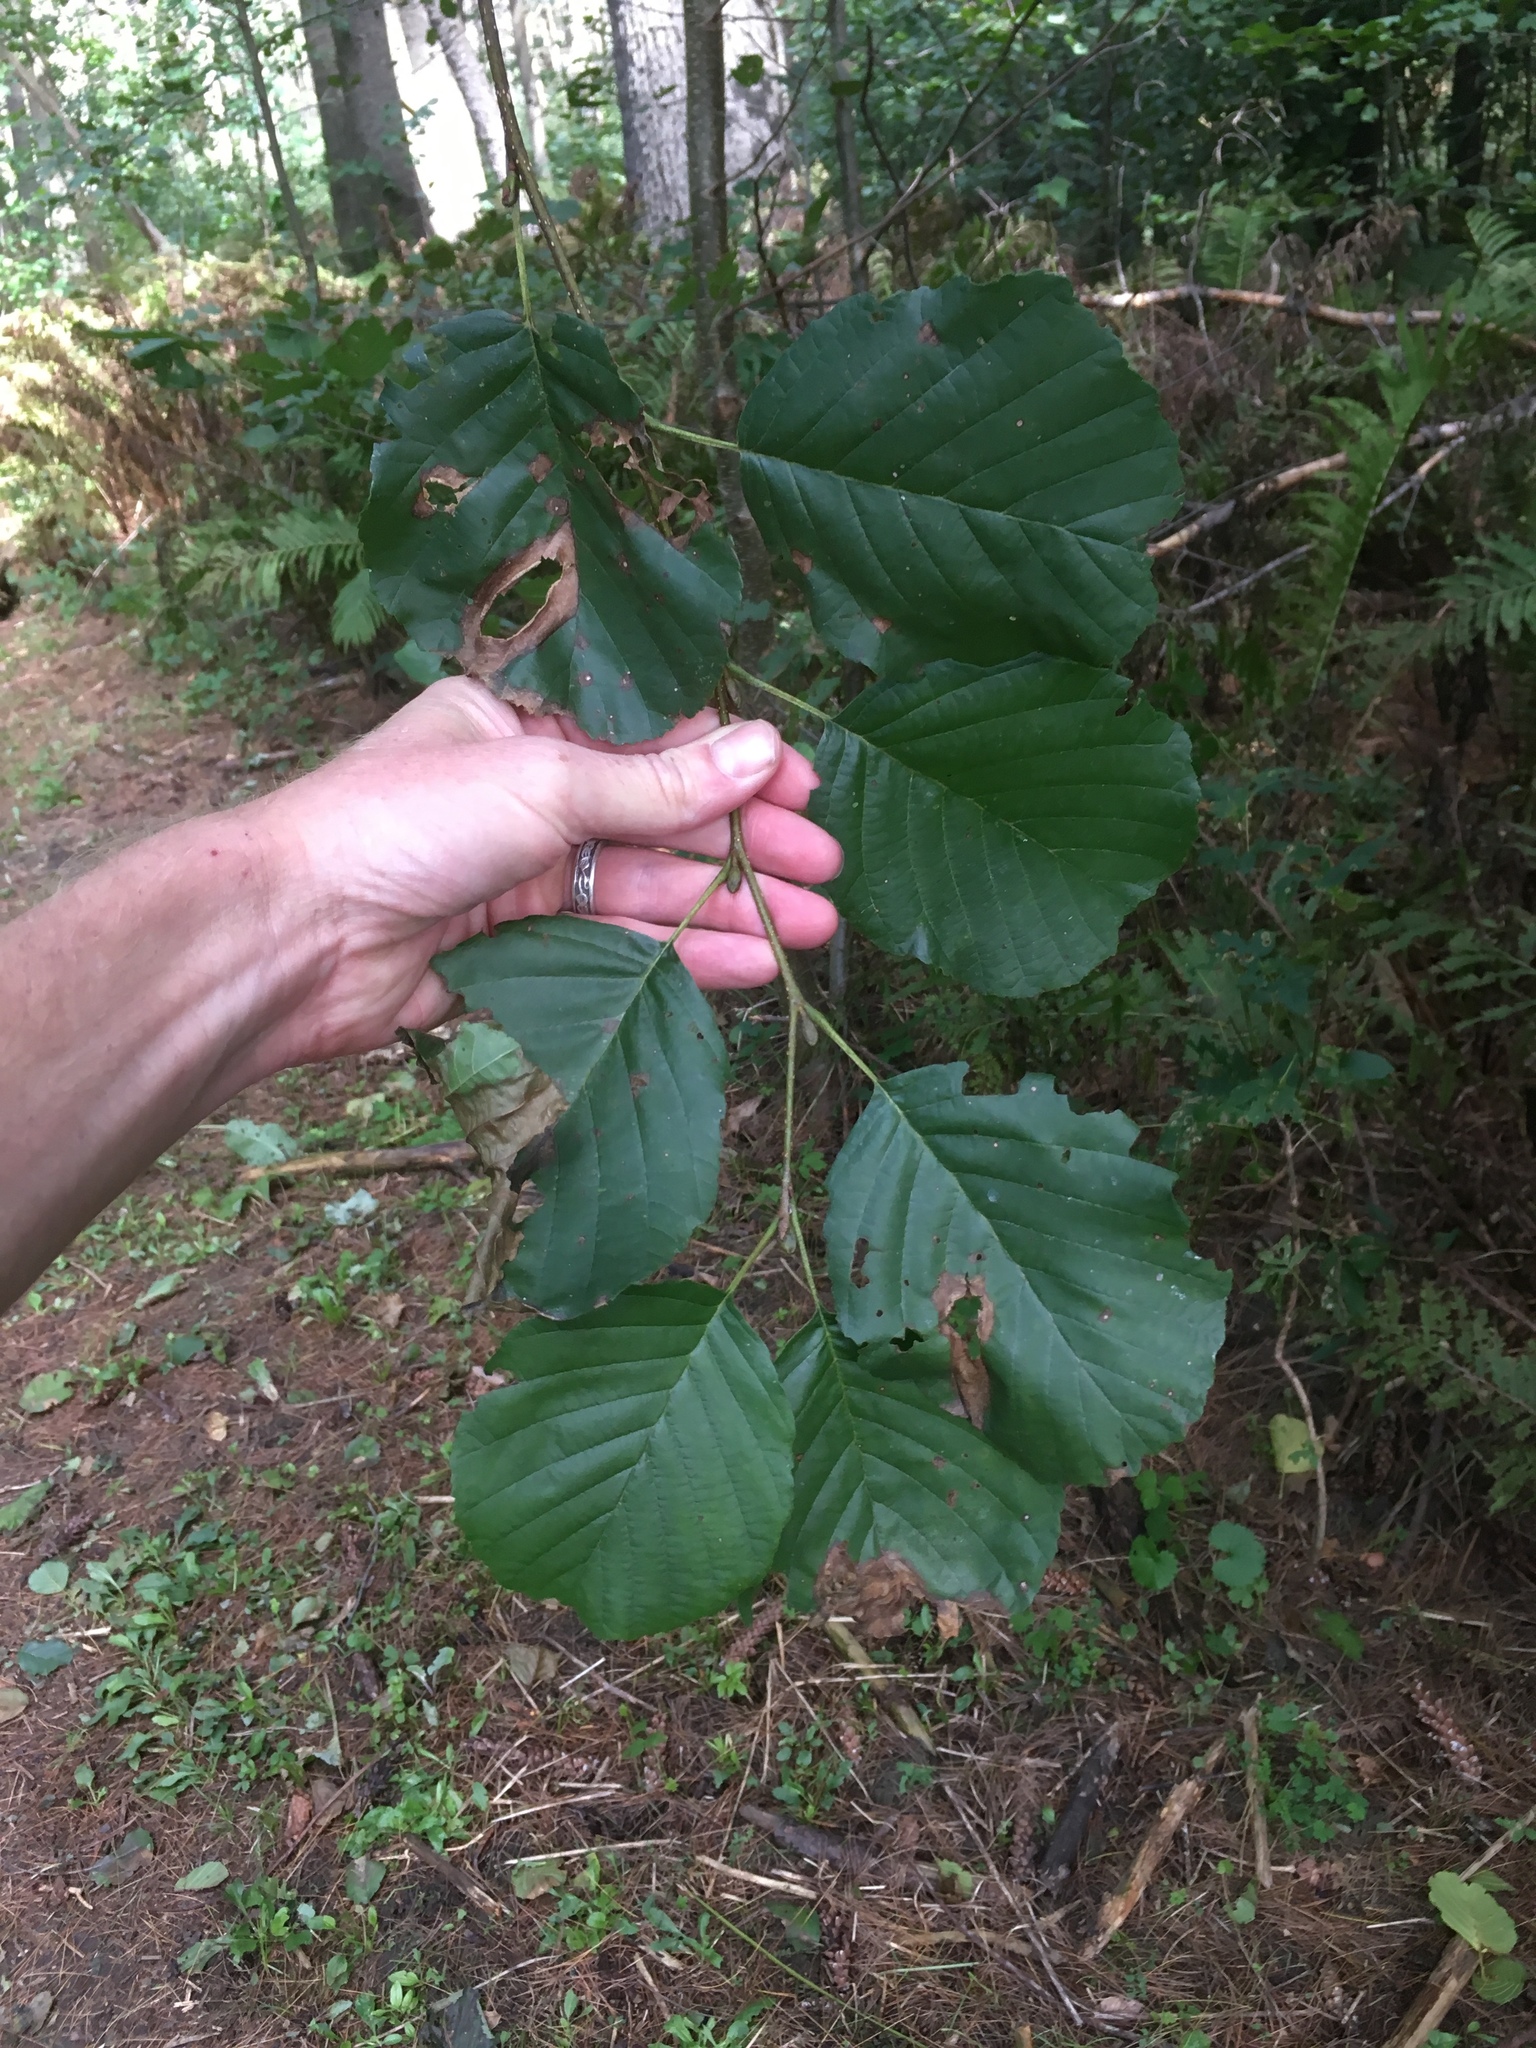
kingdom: Plantae
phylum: Tracheophyta
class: Magnoliopsida
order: Fagales
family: Betulaceae
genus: Alnus
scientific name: Alnus glutinosa
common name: Black alder
